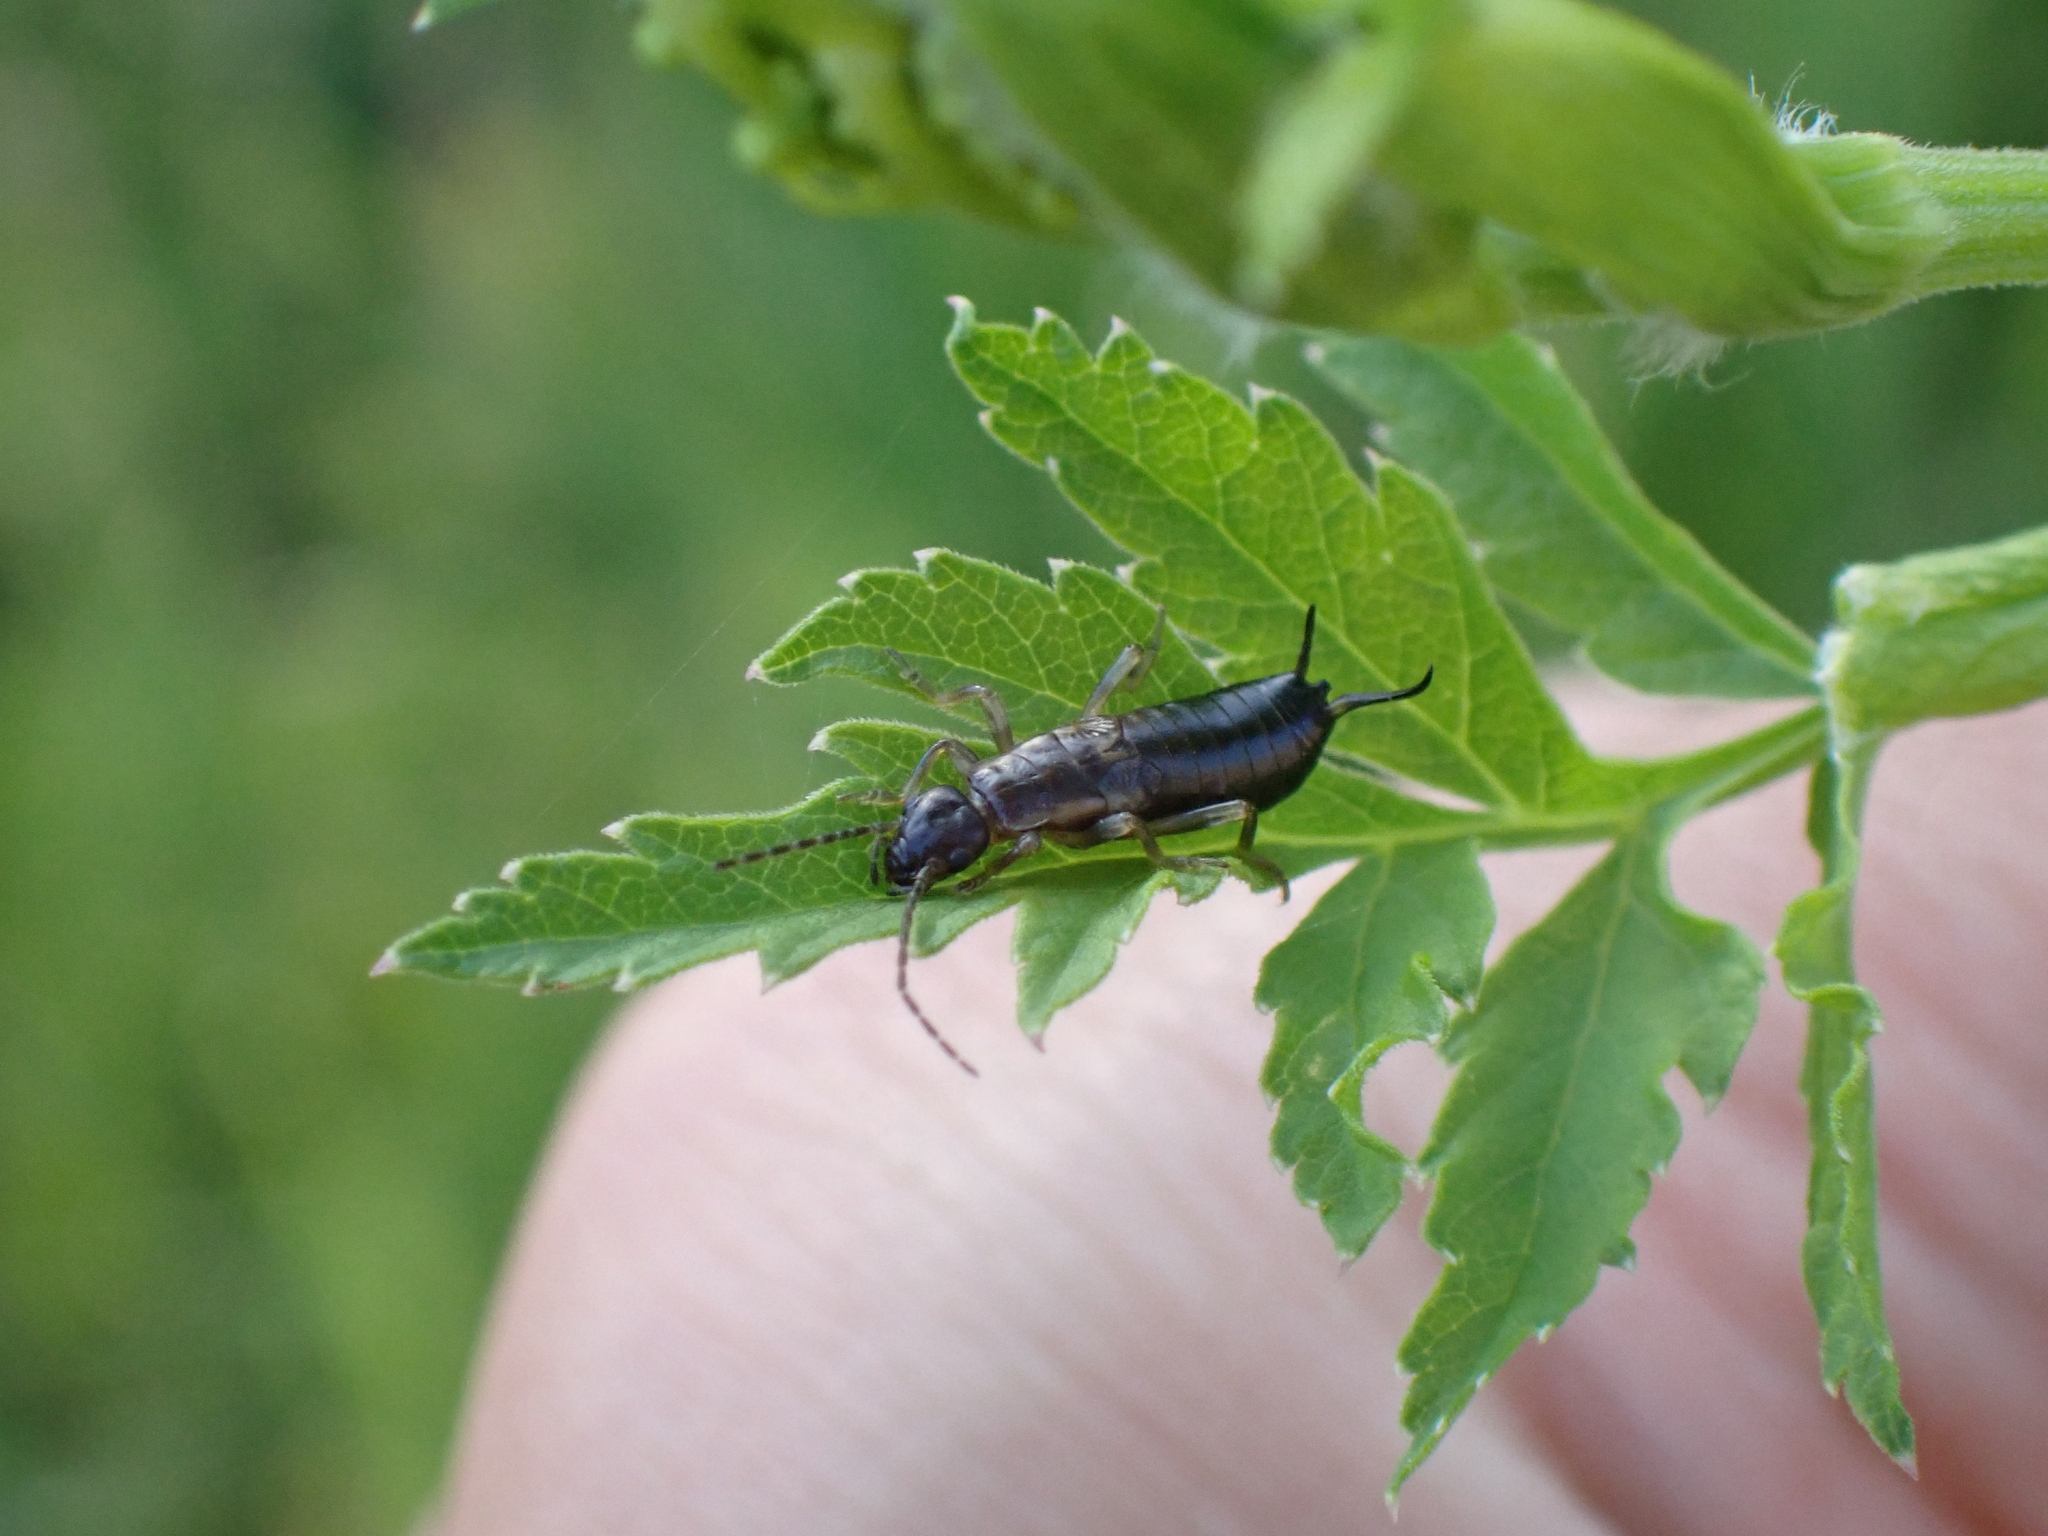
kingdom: Animalia
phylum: Arthropoda
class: Insecta
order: Dermaptera
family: Forficulidae
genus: Forficula
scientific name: Forficula
